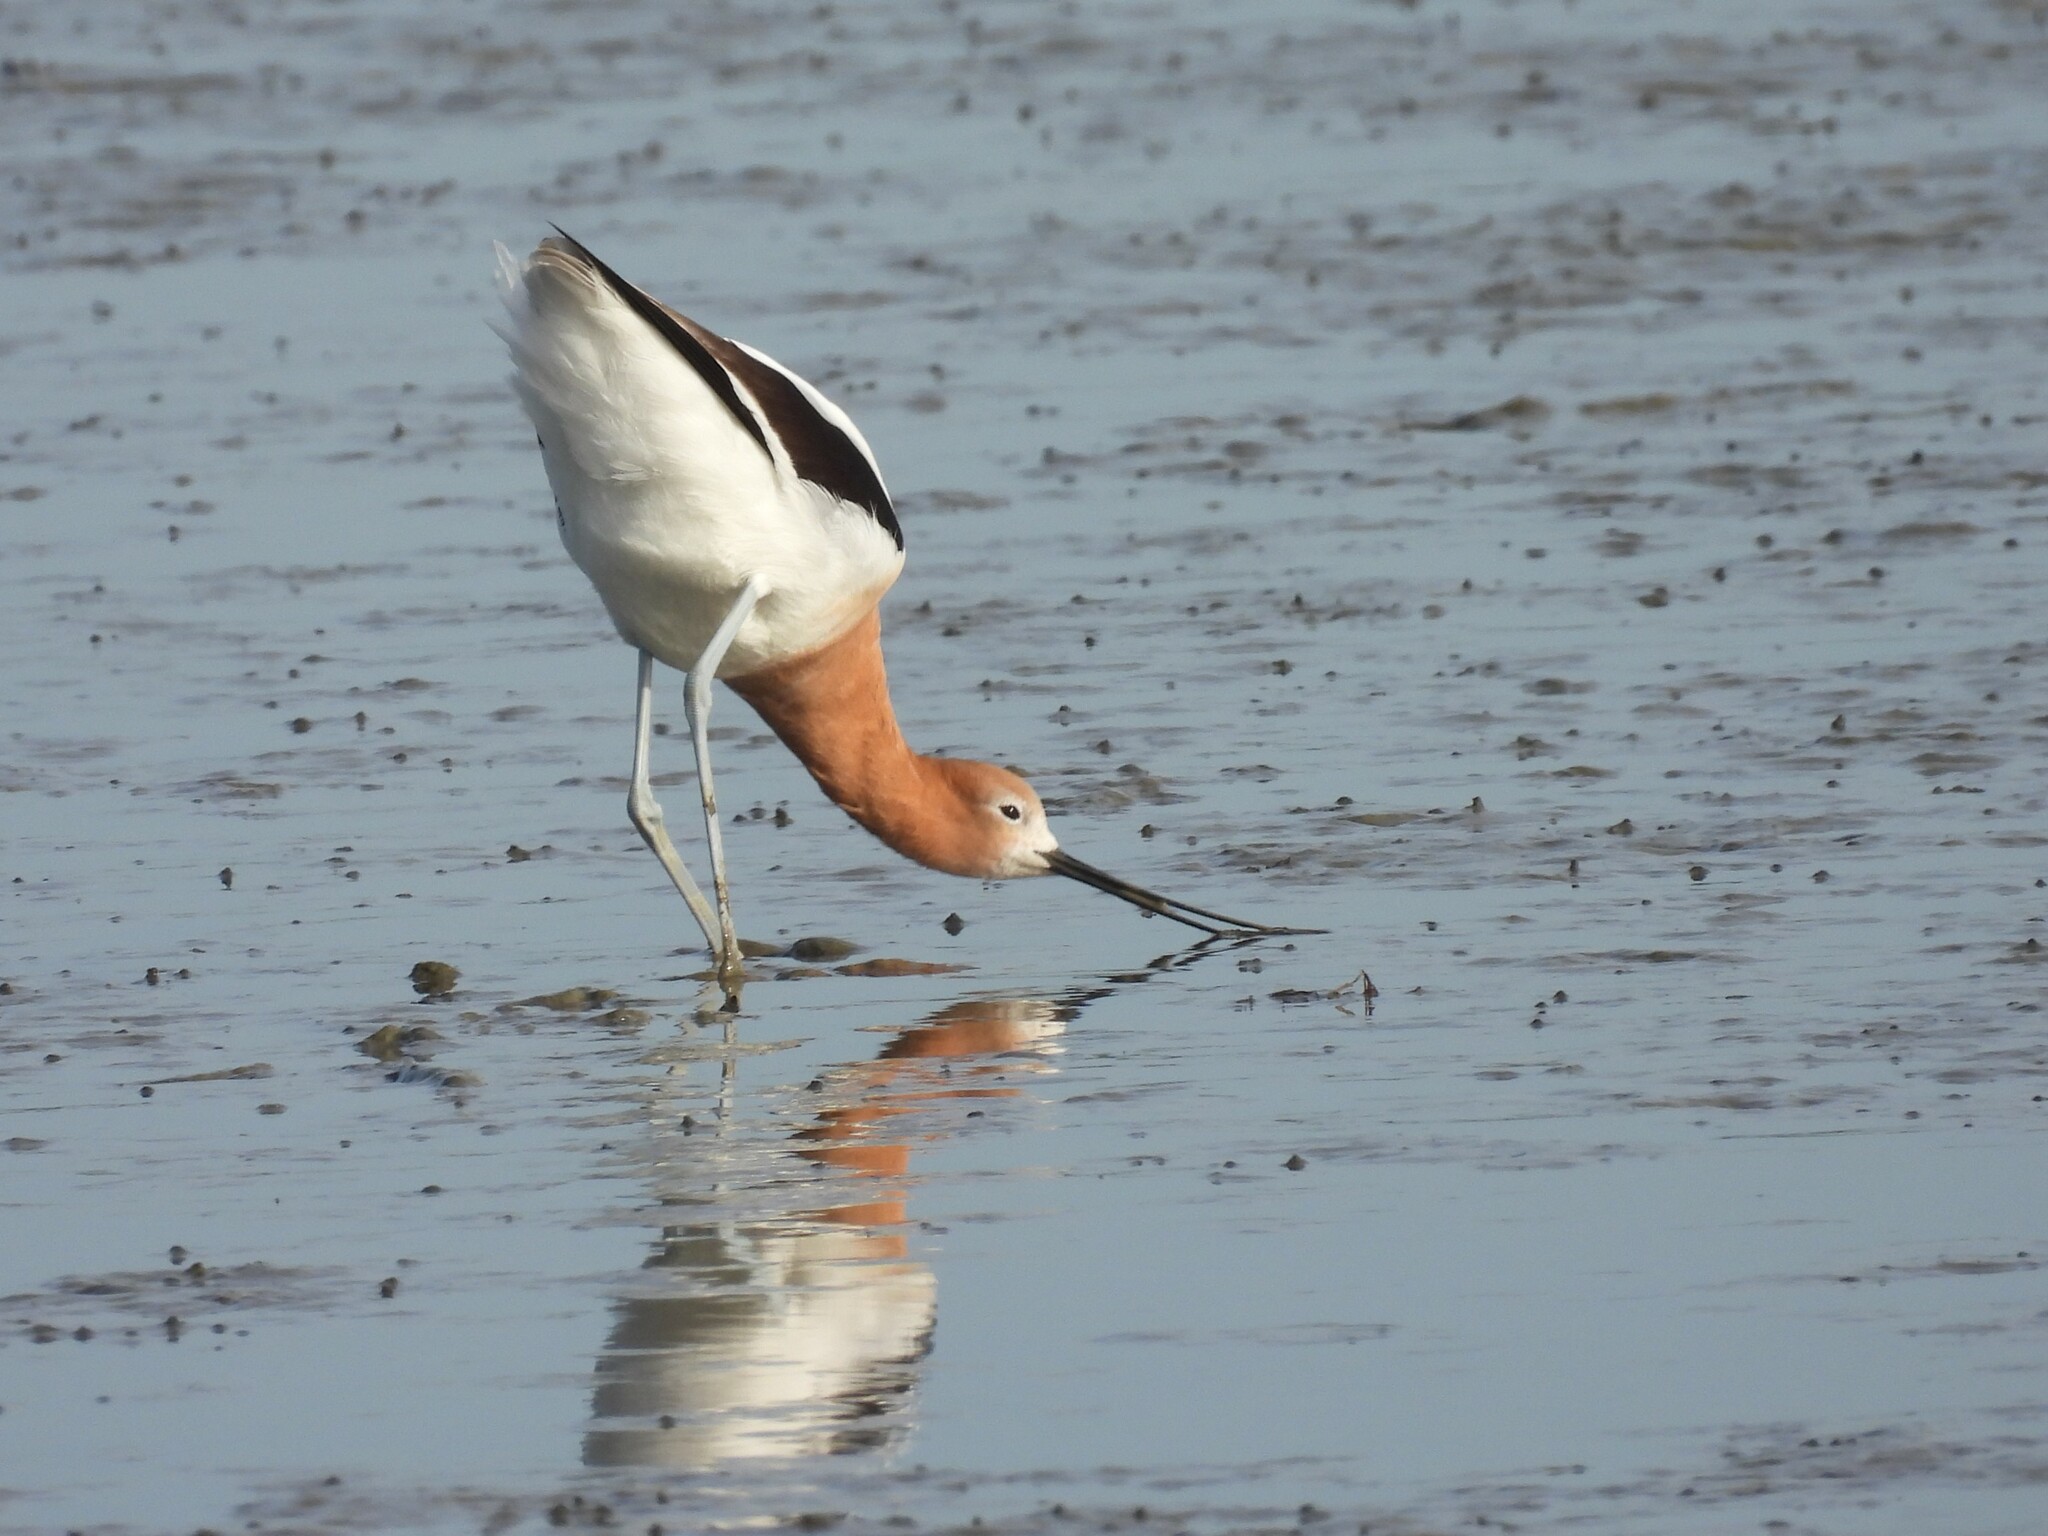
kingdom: Animalia
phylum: Chordata
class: Aves
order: Charadriiformes
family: Recurvirostridae
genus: Recurvirostra
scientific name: Recurvirostra americana
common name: American avocet
